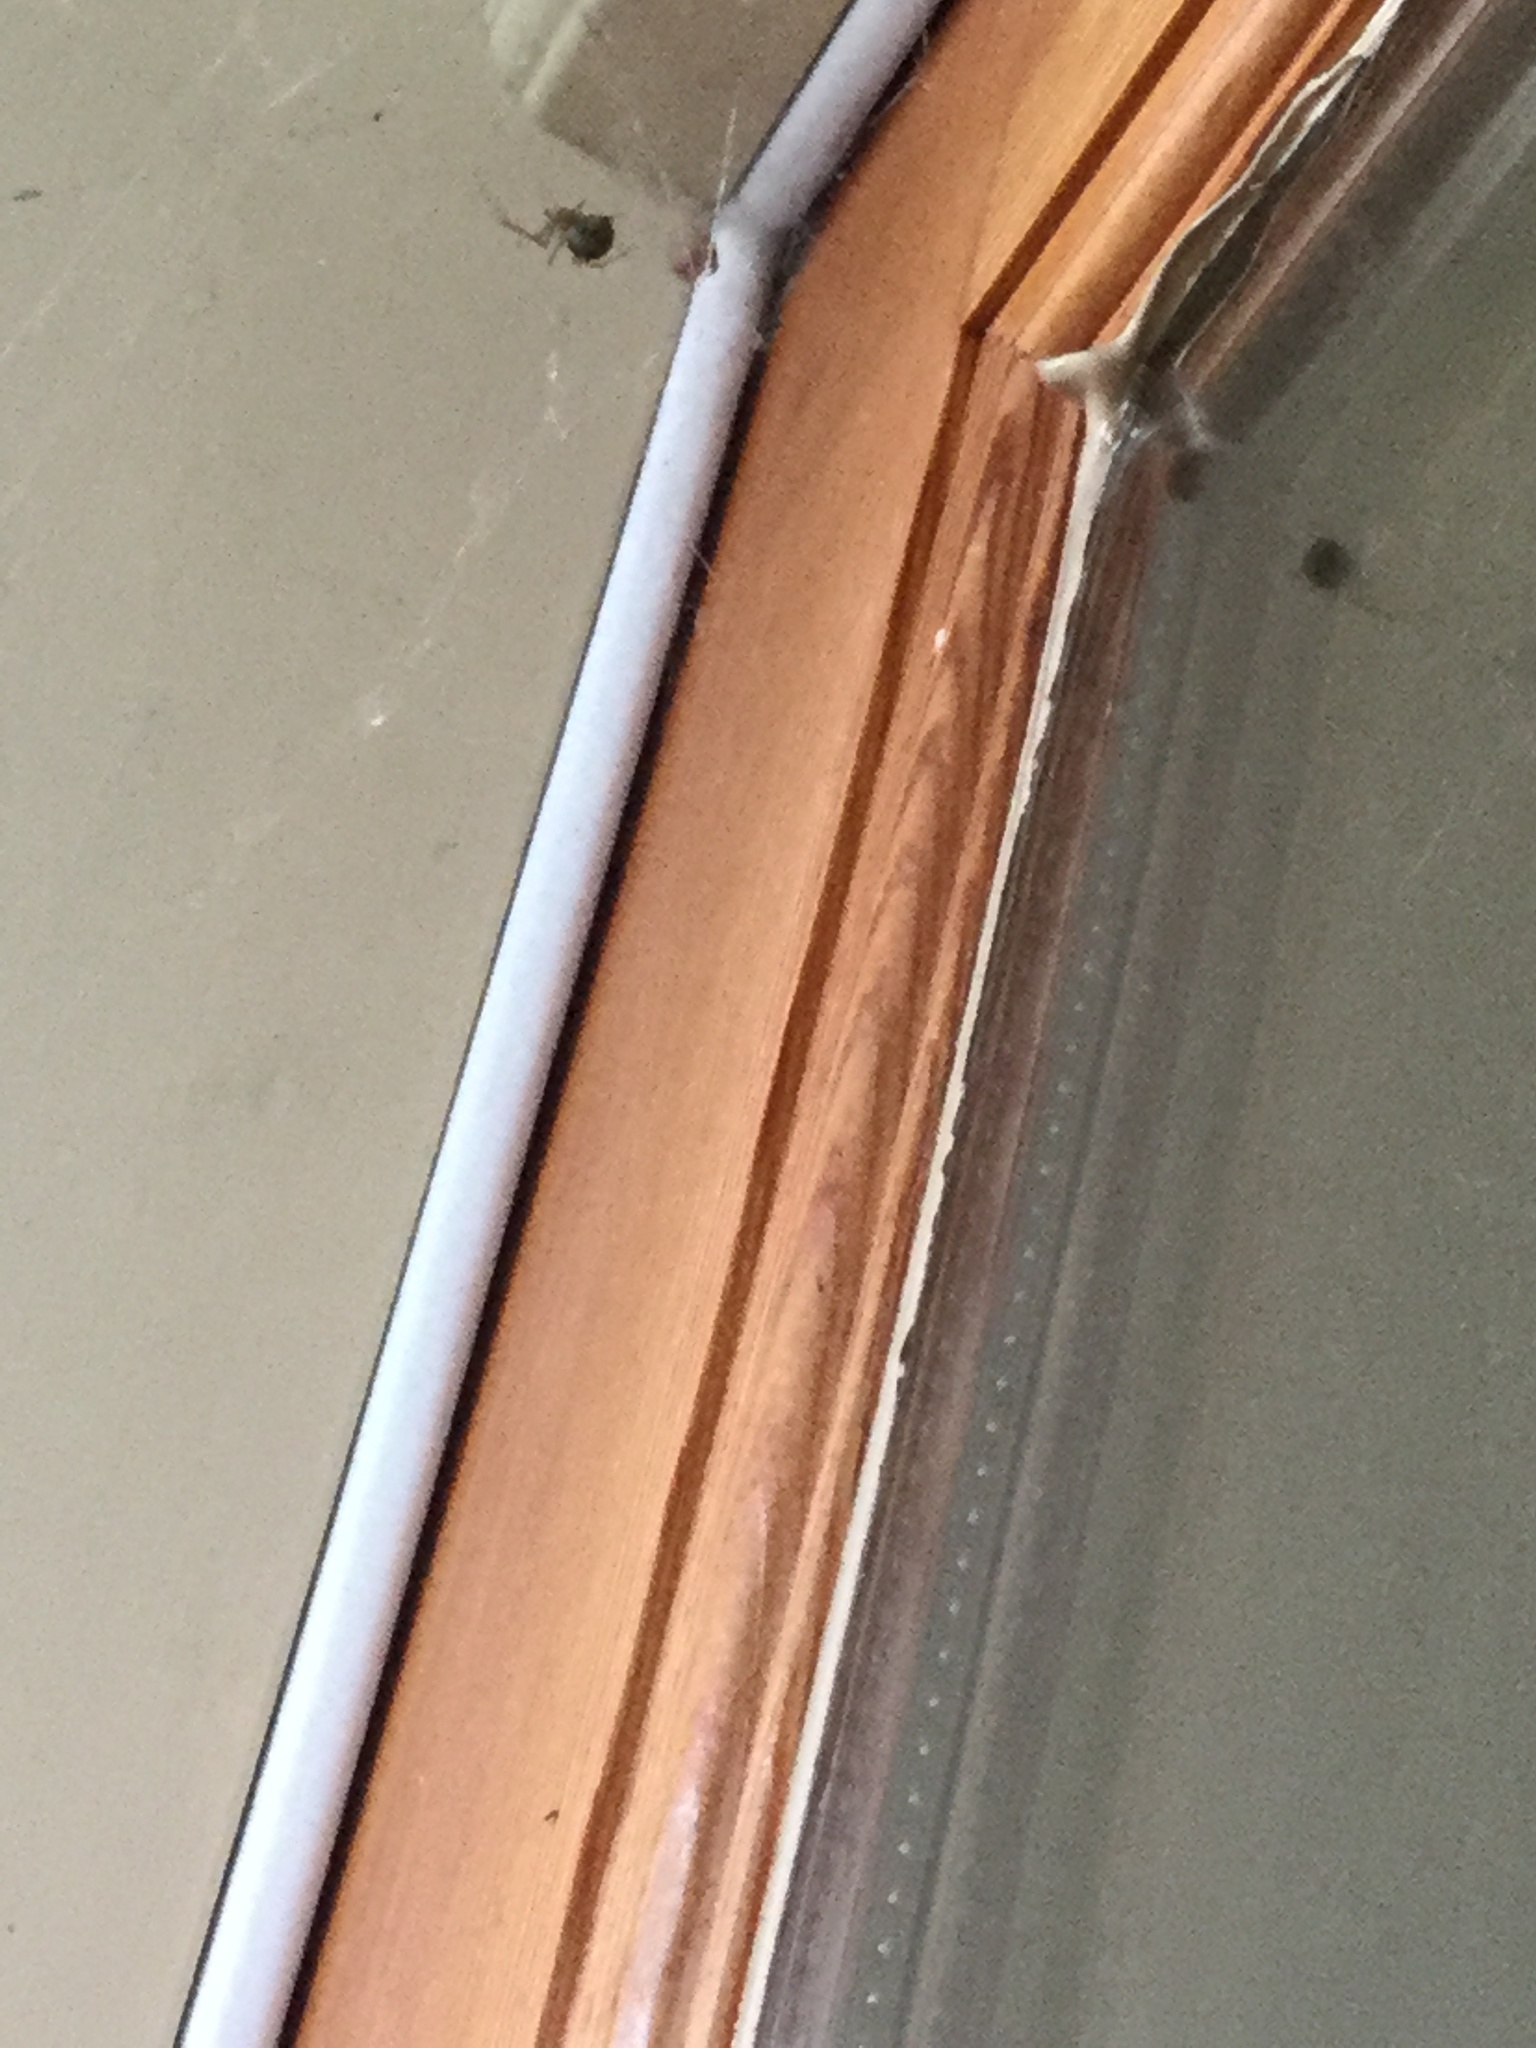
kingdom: Animalia
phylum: Arthropoda
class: Arachnida
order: Araneae
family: Theridiidae
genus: Parasteatoda
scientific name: Parasteatoda tepidariorum
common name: Common house spider
